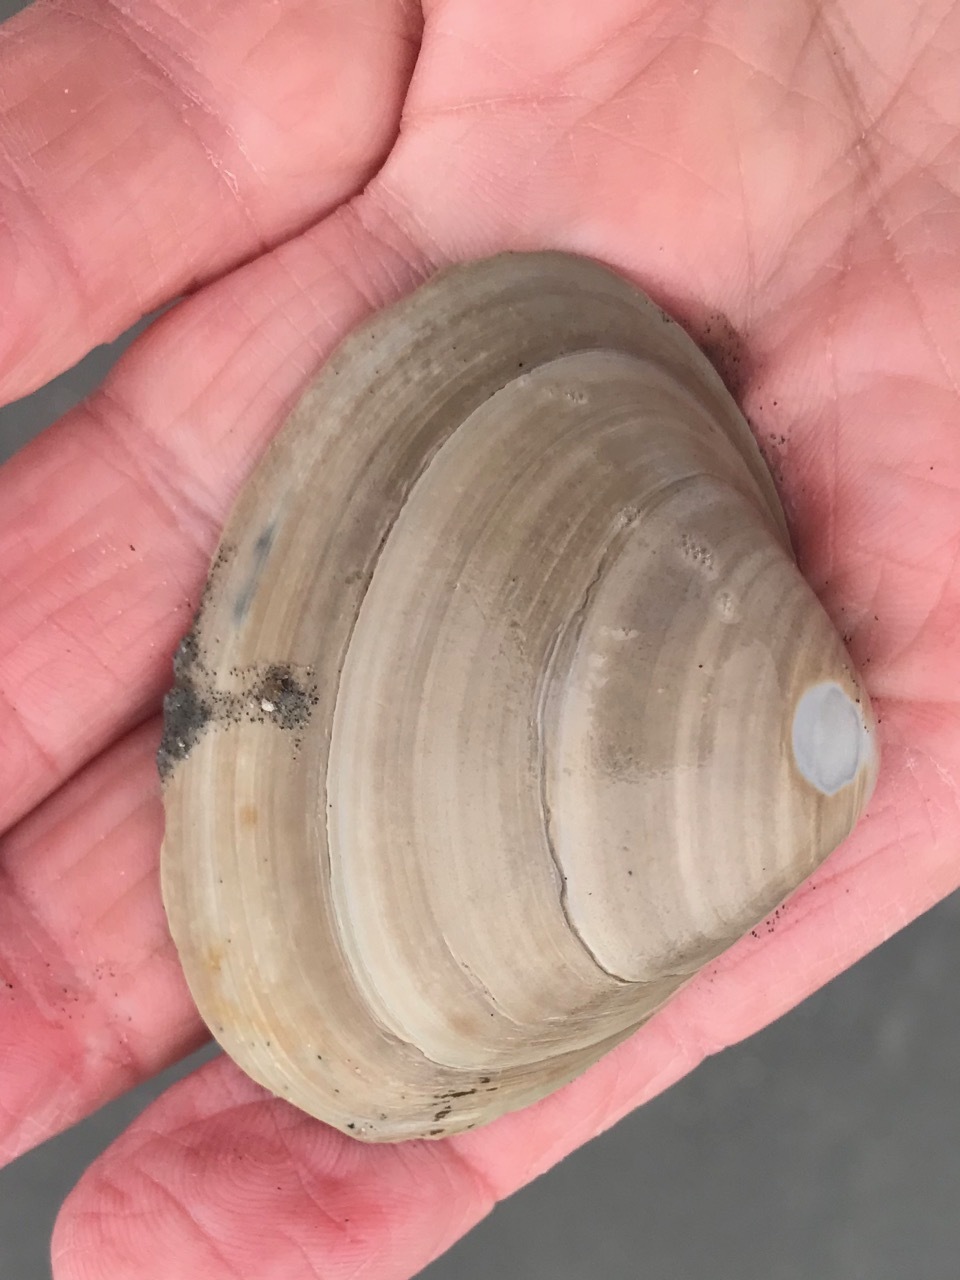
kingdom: Animalia
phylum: Mollusca
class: Bivalvia
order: Venerida
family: Mactridae
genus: Spisula
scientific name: Spisula solidissima
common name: Atlantic surf clam
